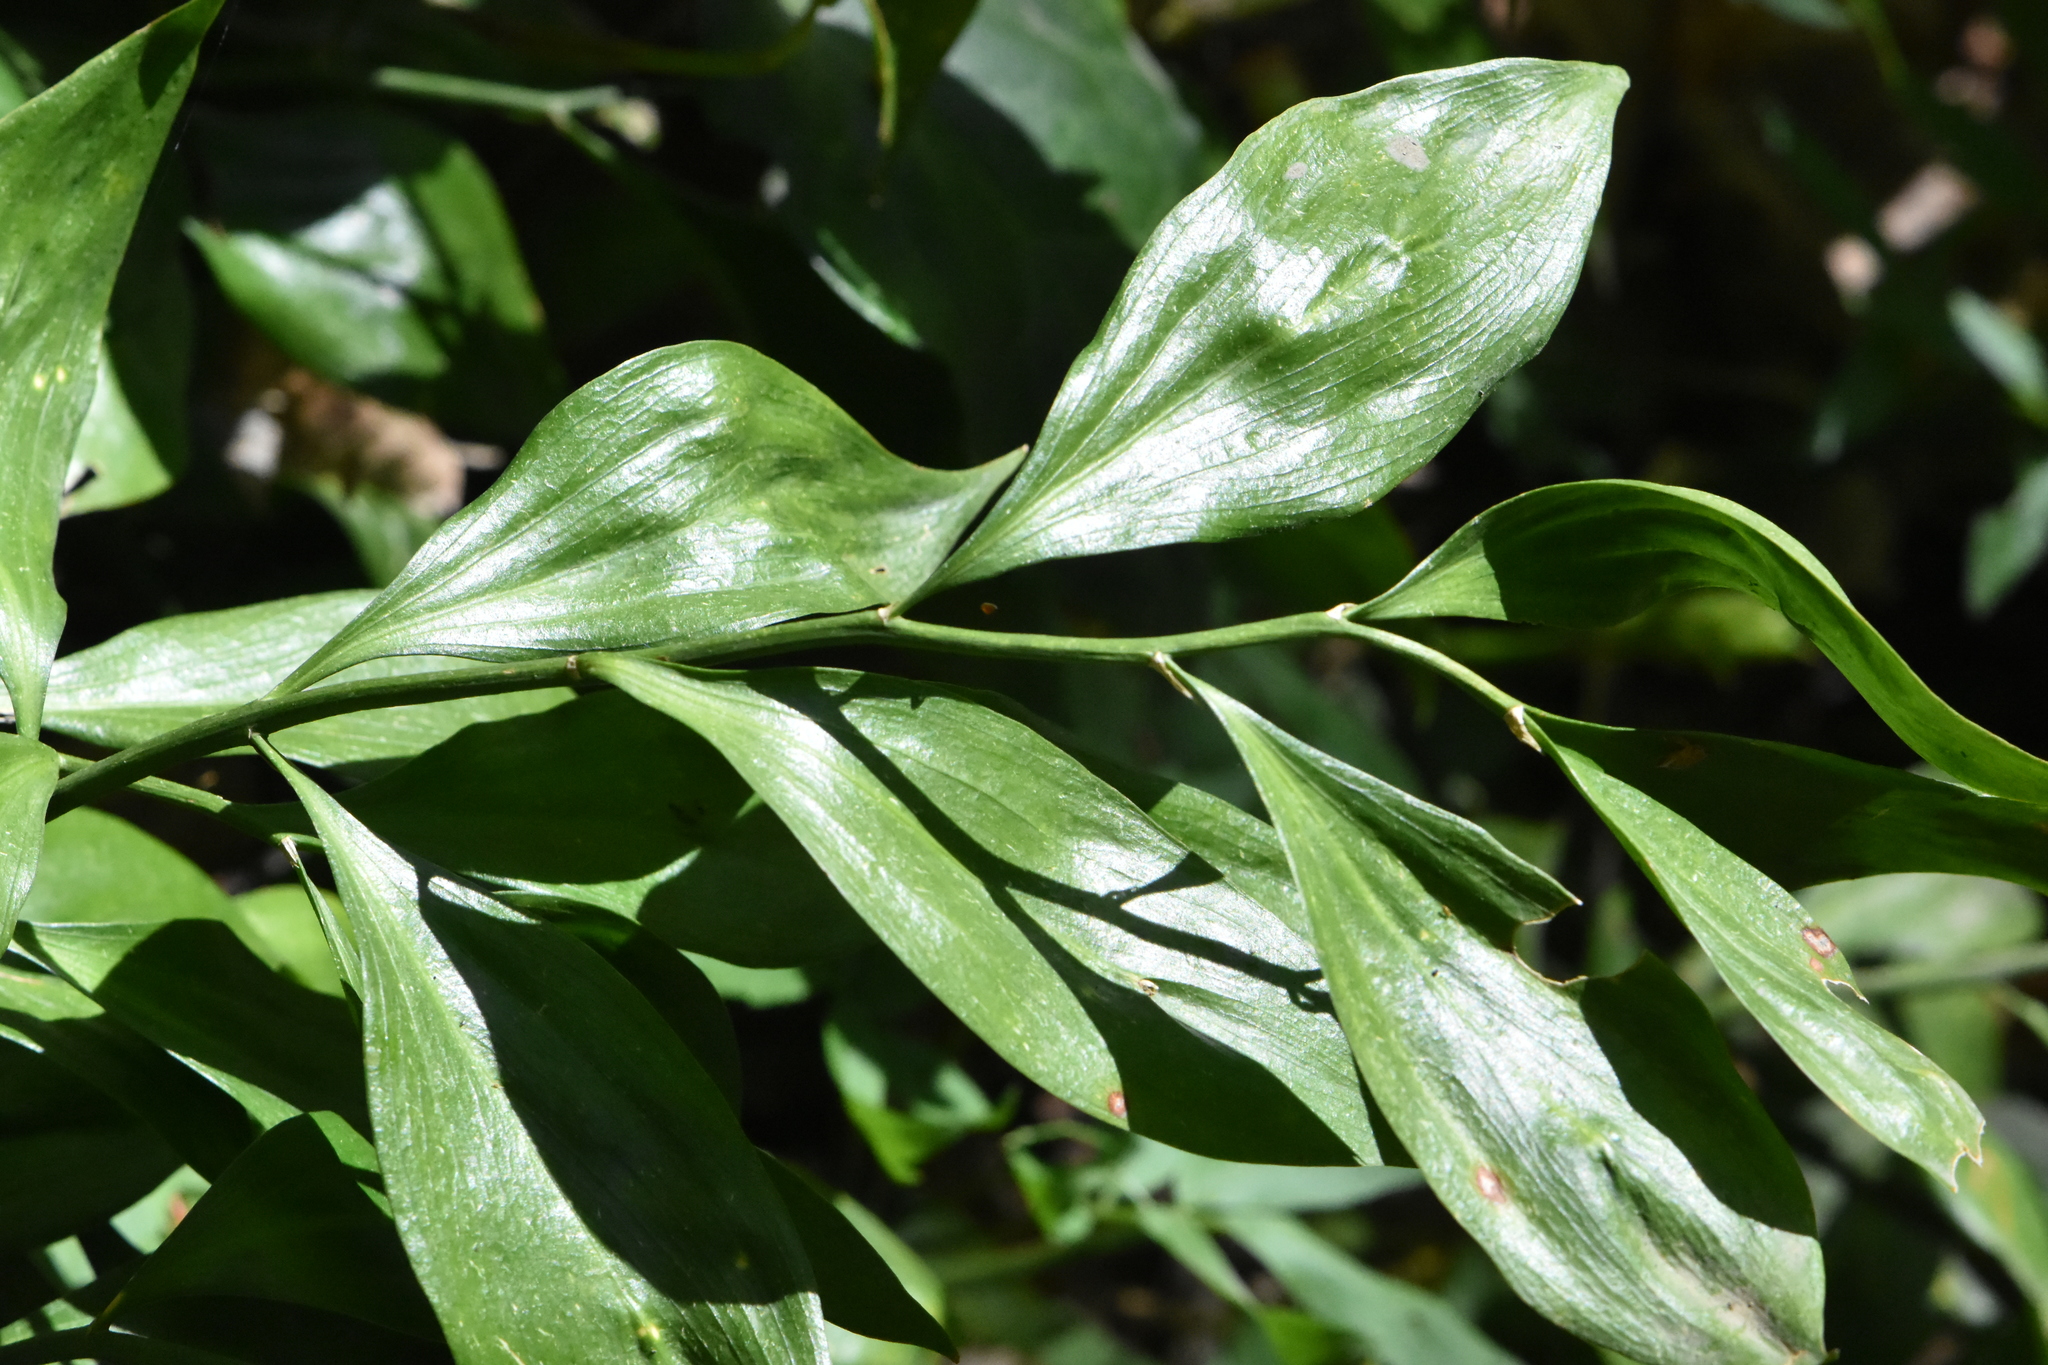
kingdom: Plantae
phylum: Tracheophyta
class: Liliopsida
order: Asparagales
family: Asparagaceae
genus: Ruscus
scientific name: Ruscus colchicus
